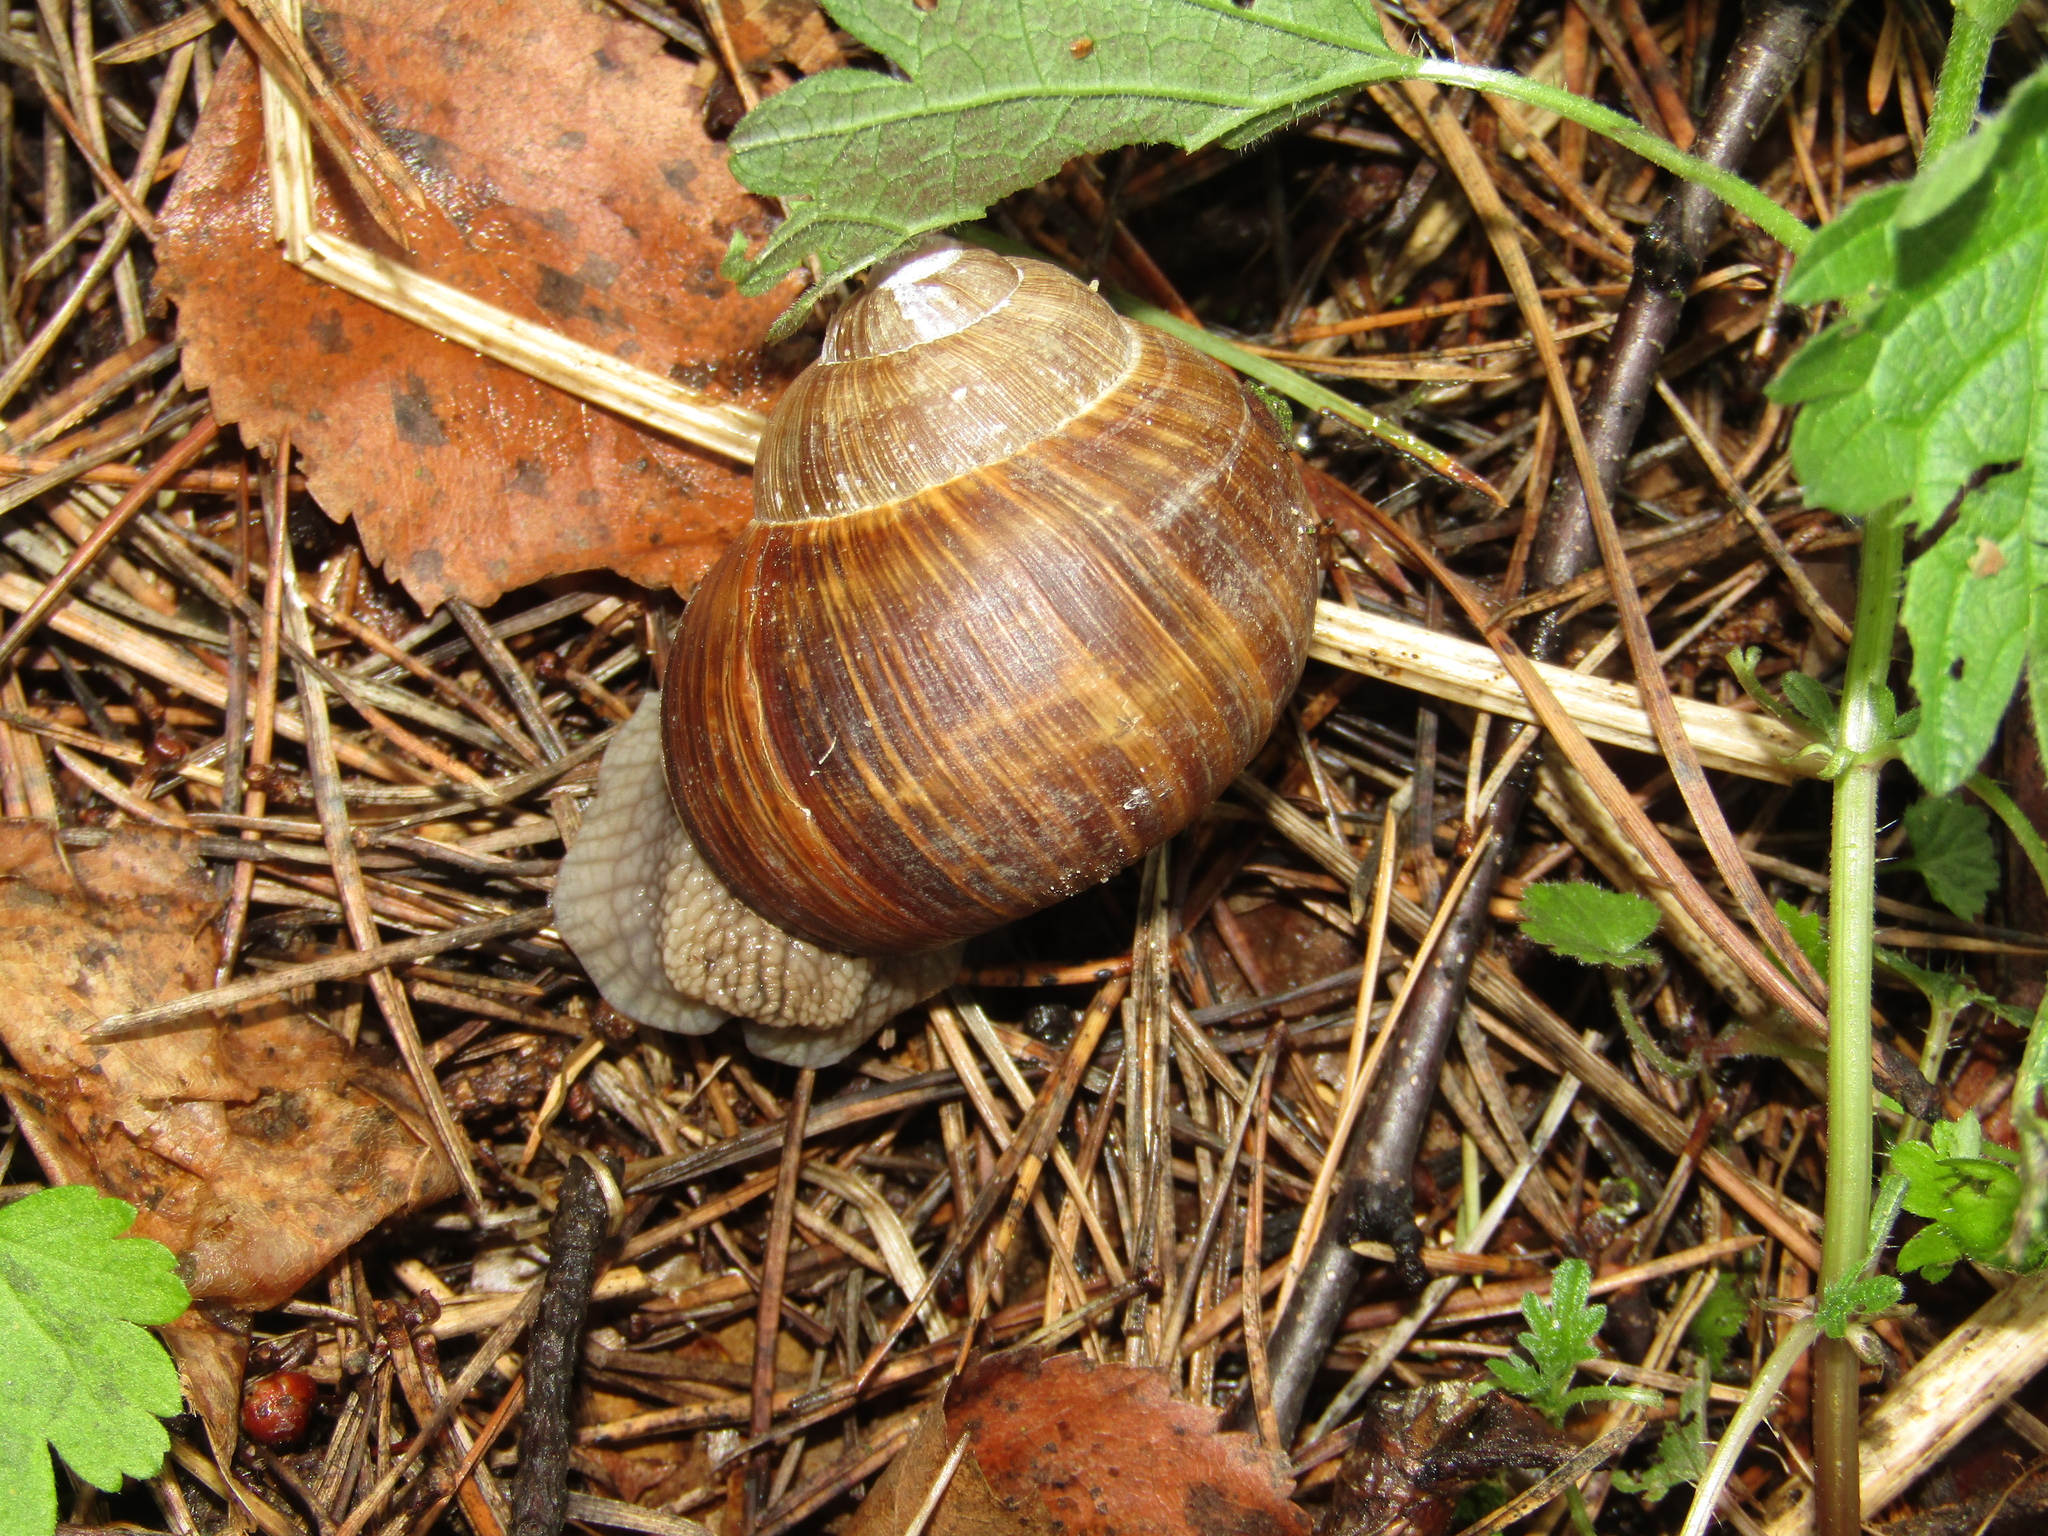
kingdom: Animalia
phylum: Mollusca
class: Gastropoda
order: Stylommatophora
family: Helicidae
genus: Helix
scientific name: Helix pomatia
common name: Roman snail
